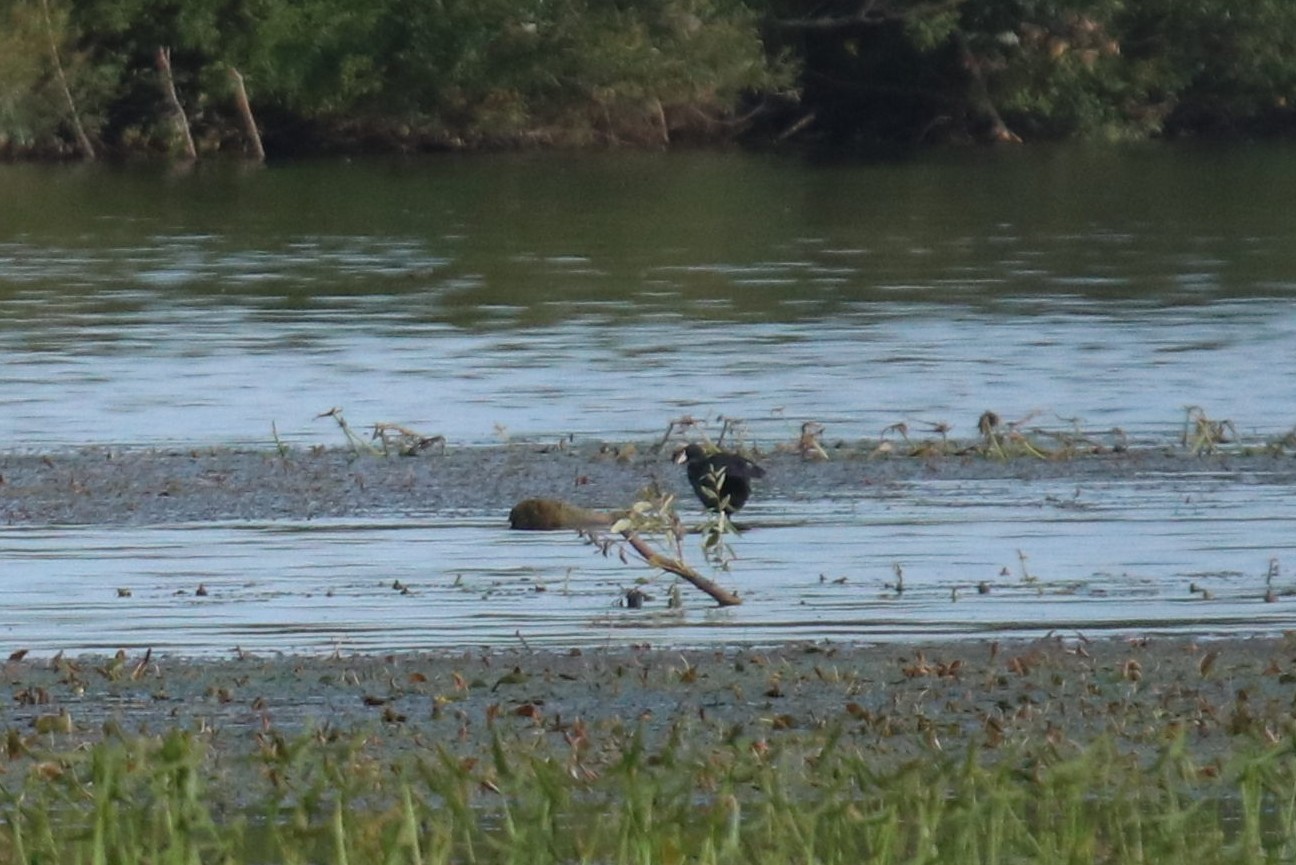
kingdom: Animalia
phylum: Chordata
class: Aves
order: Gruiformes
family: Rallidae
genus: Fulica
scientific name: Fulica atra
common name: Eurasian coot
